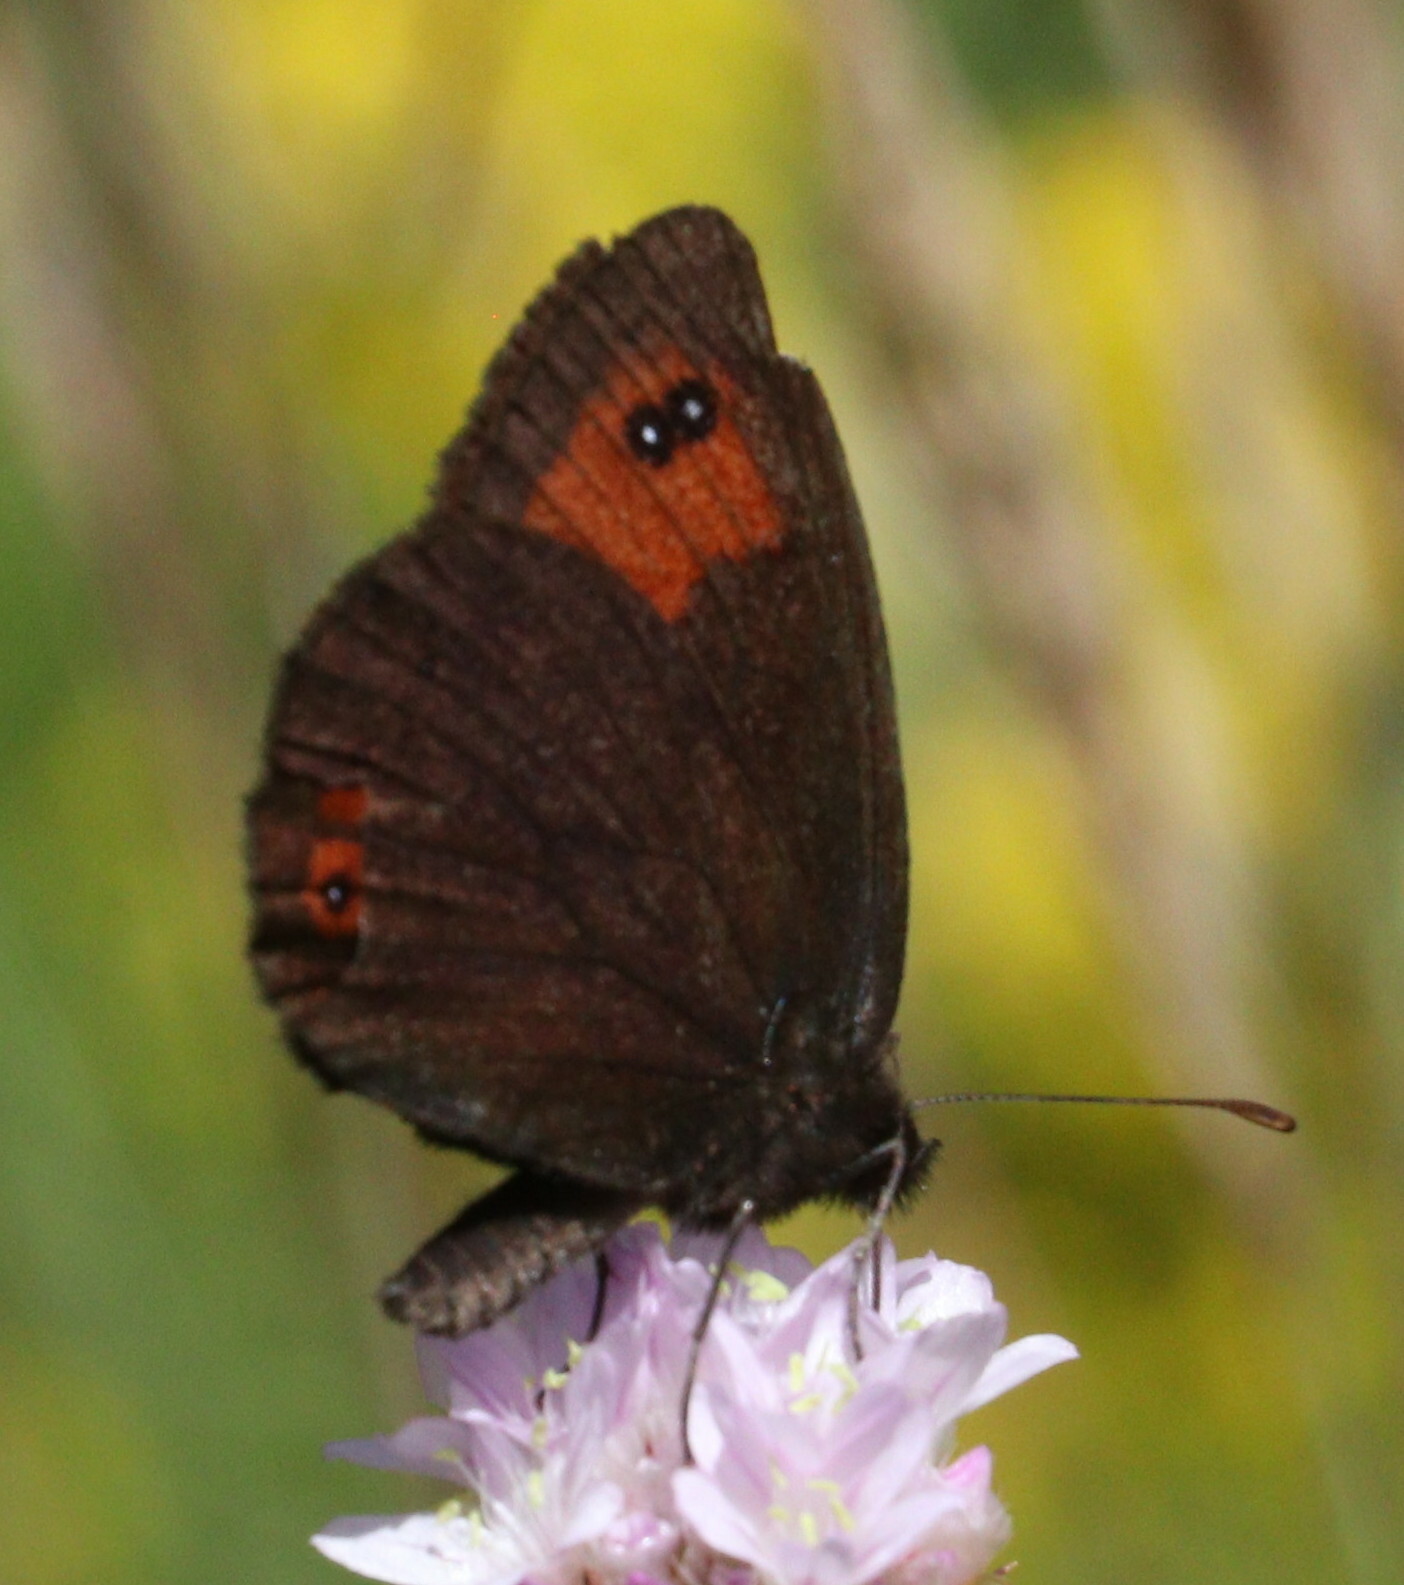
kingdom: Animalia
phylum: Arthropoda
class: Insecta
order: Lepidoptera
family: Nymphalidae
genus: Erebia
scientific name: Erebia meolans
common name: Piedmont ringlet
